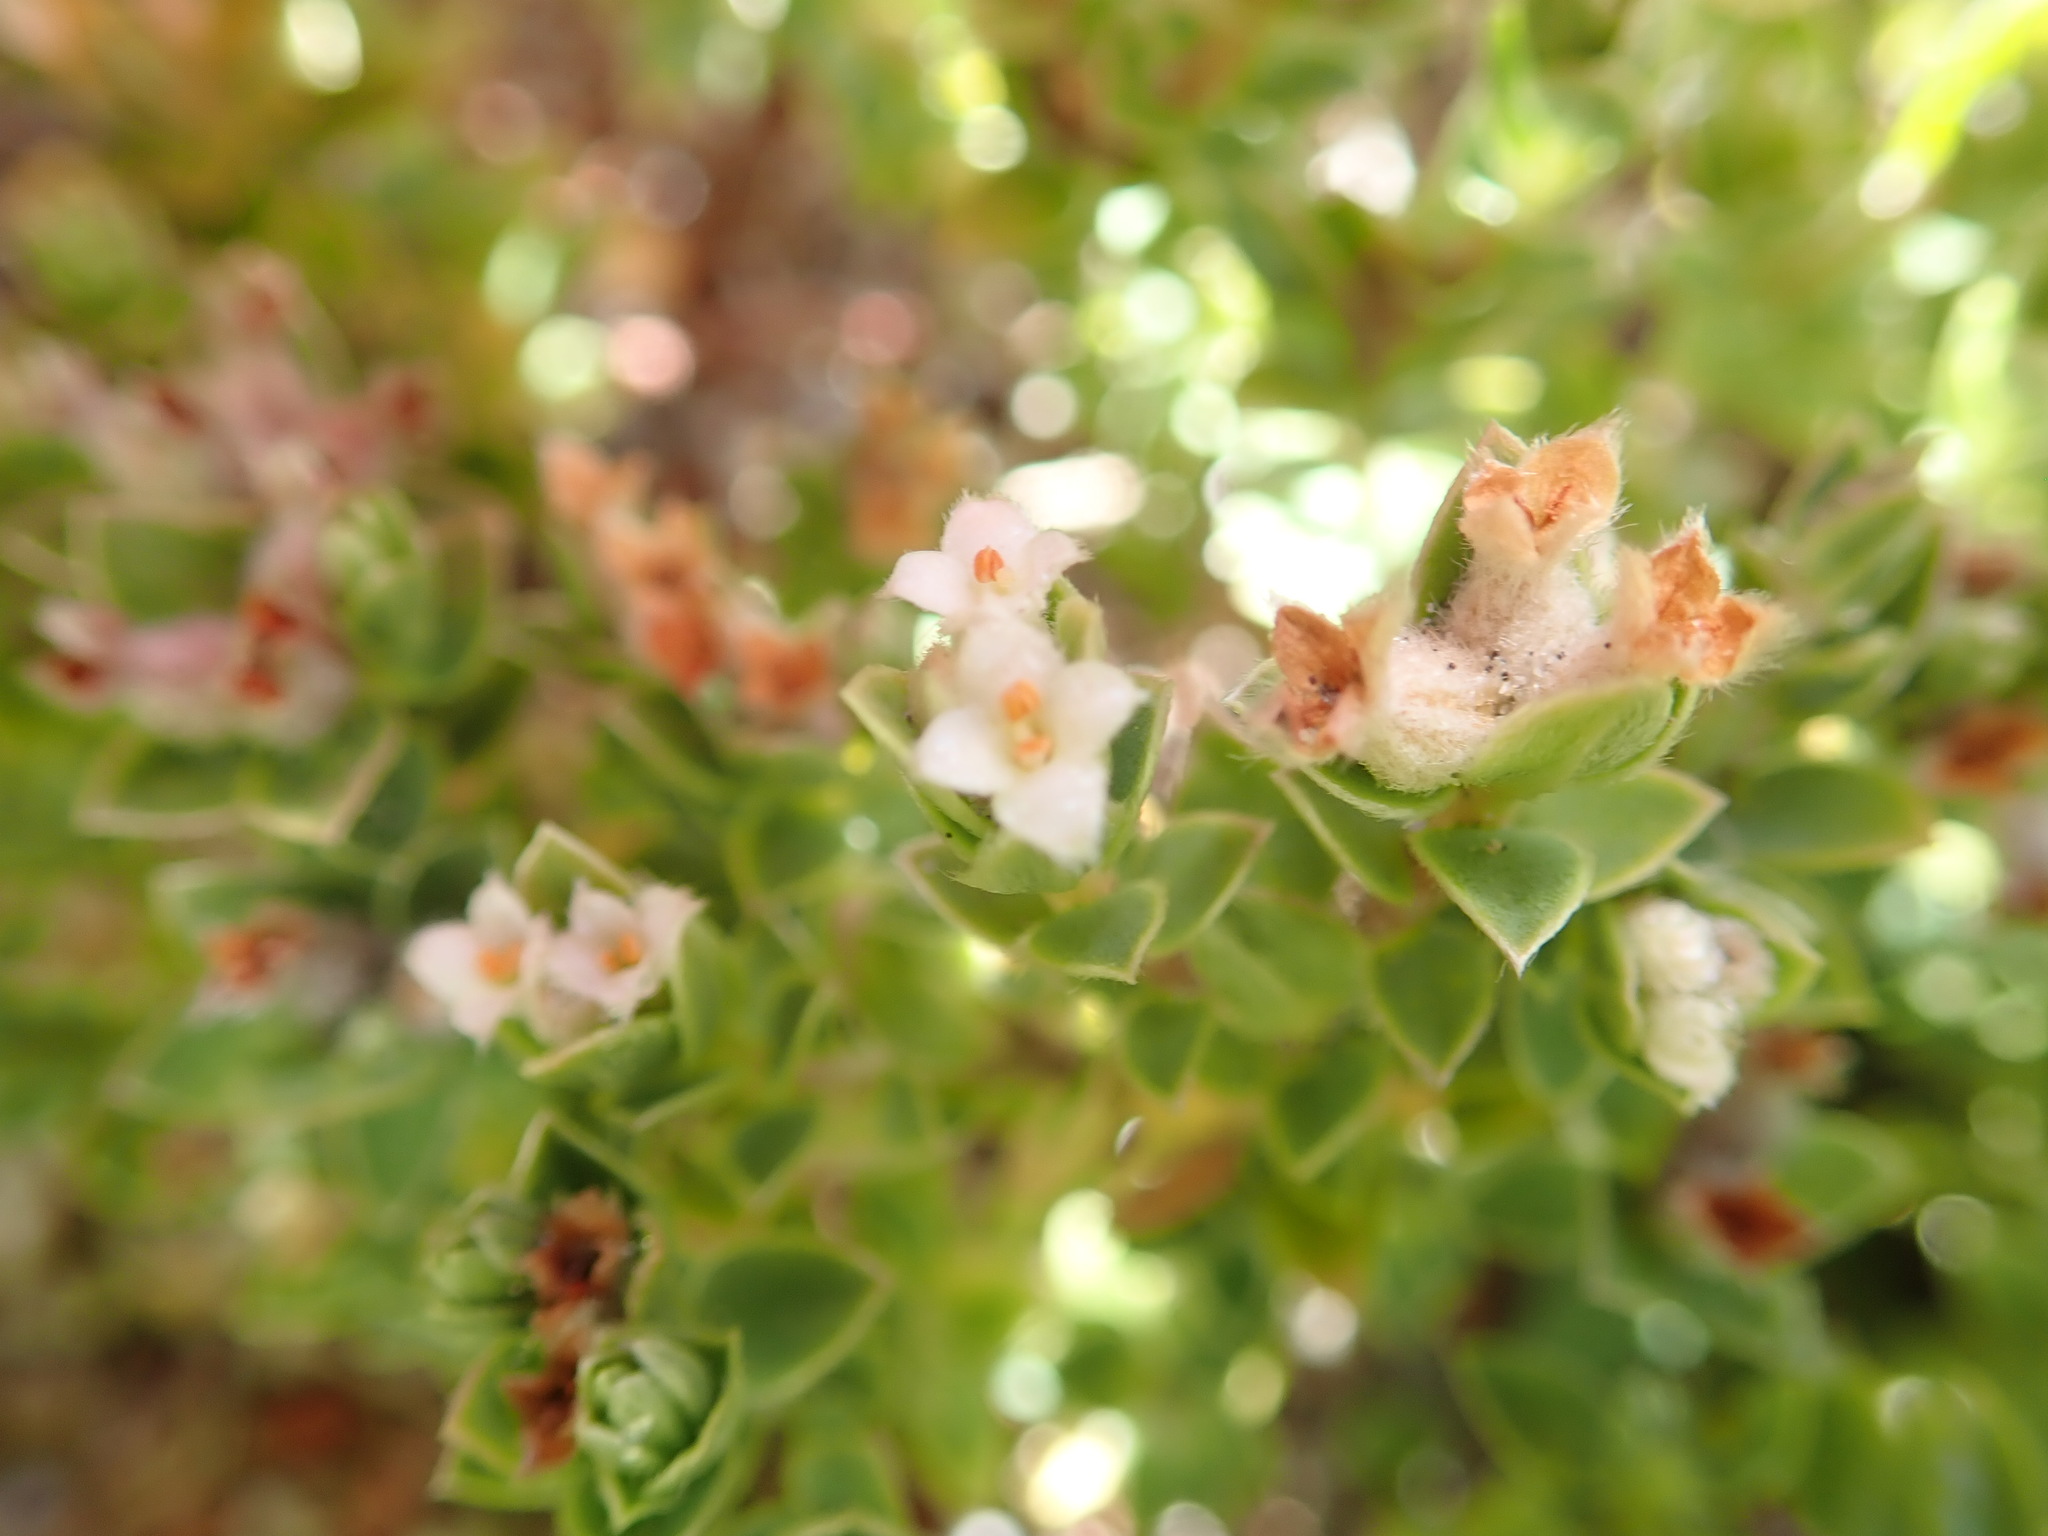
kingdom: Plantae
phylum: Tracheophyta
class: Magnoliopsida
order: Malvales
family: Thymelaeaceae
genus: Pimelea
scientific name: Pimelea villosa
